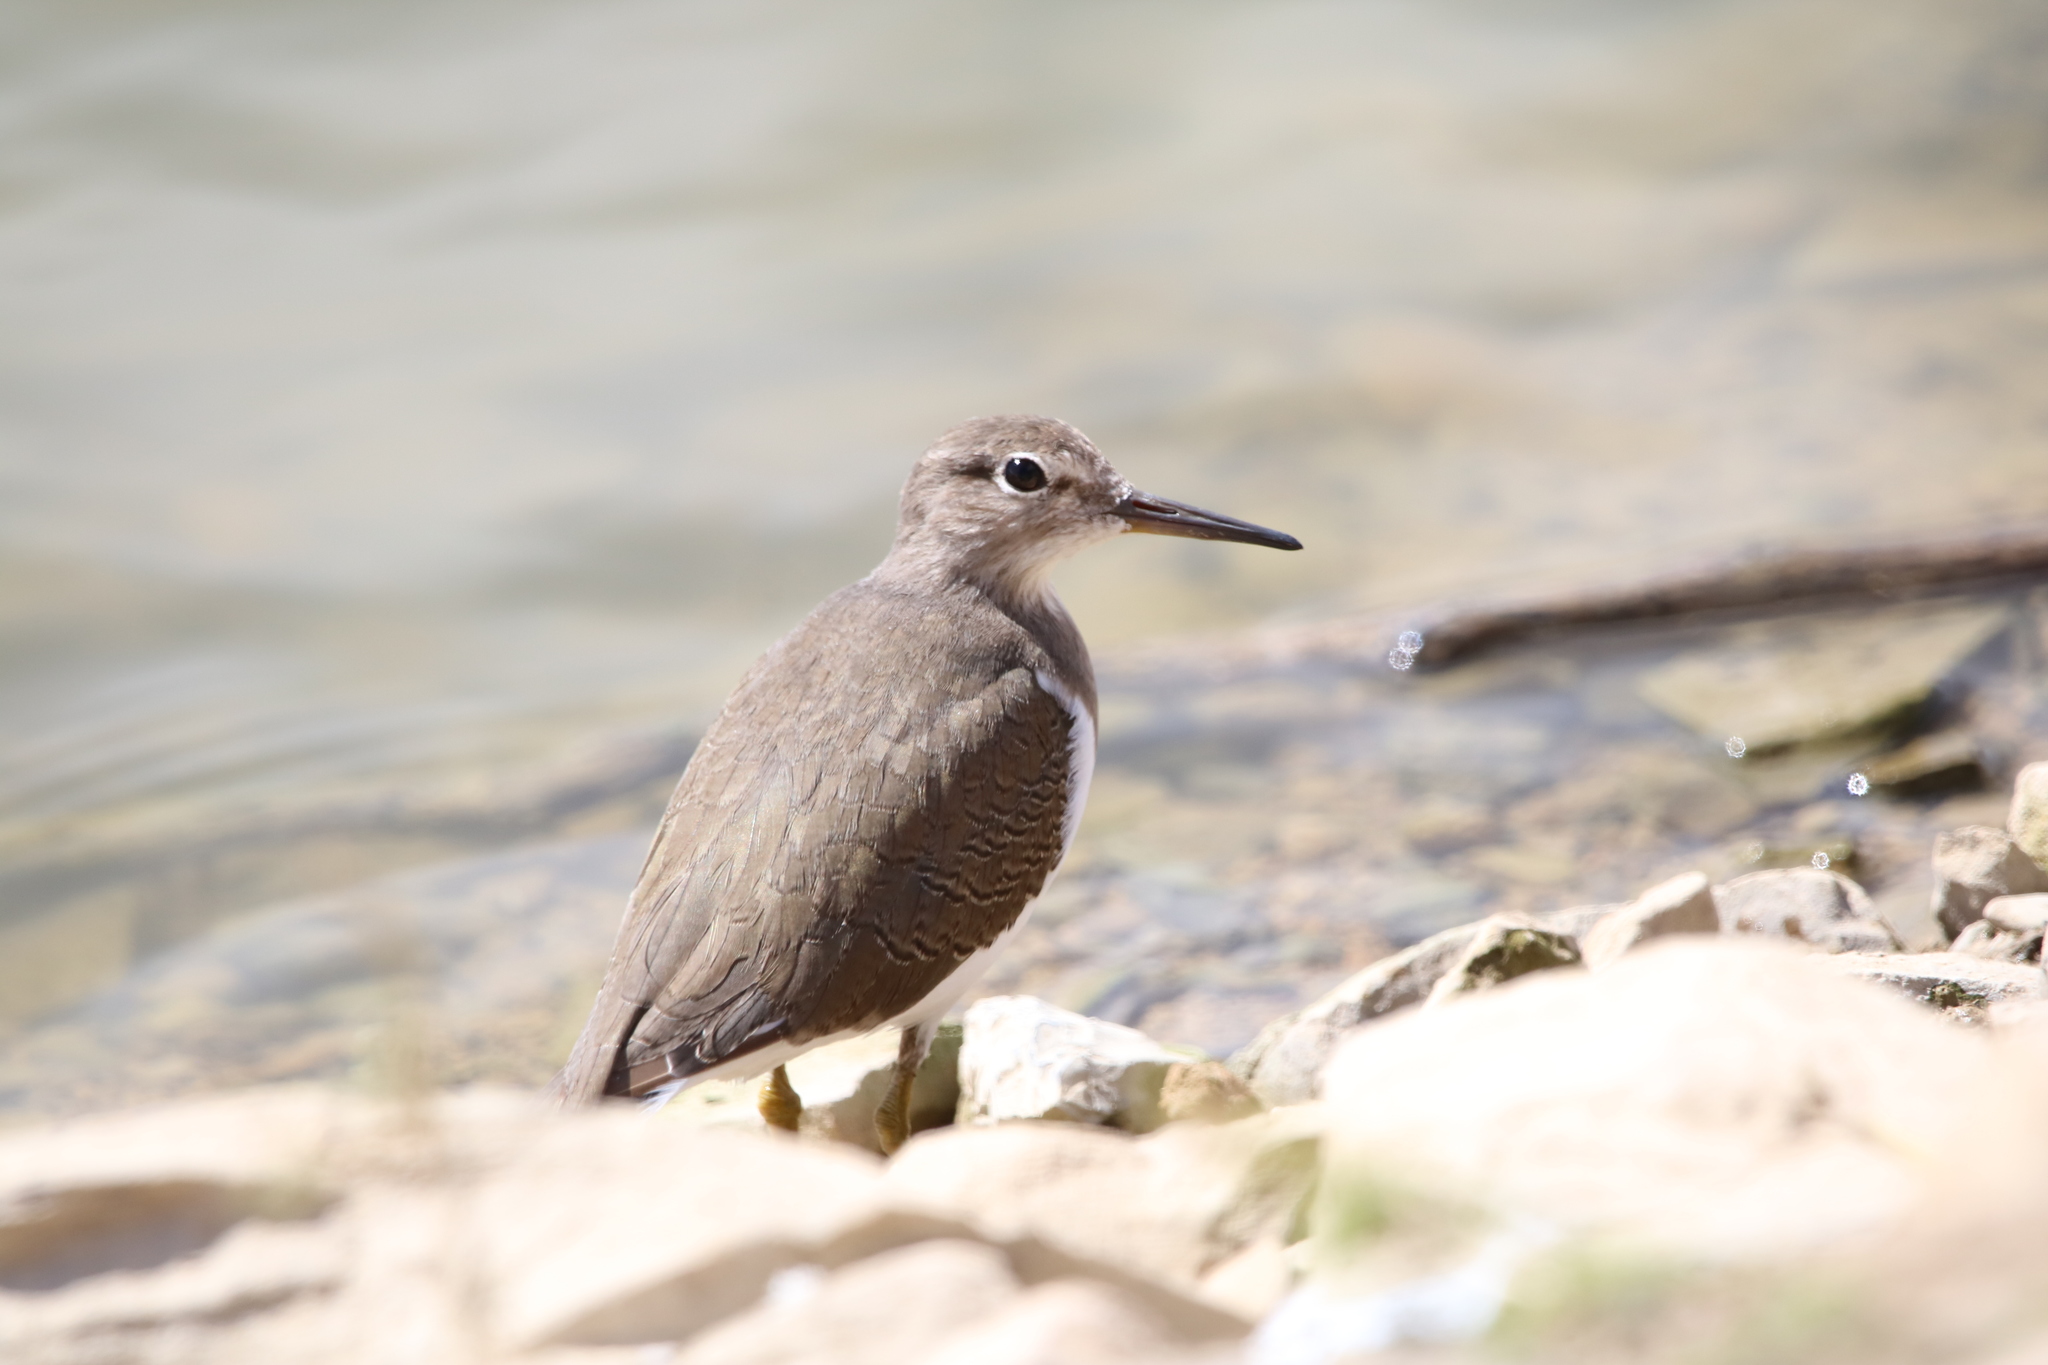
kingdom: Animalia
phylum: Chordata
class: Aves
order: Charadriiformes
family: Scolopacidae
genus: Actitis
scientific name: Actitis hypoleucos
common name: Common sandpiper
